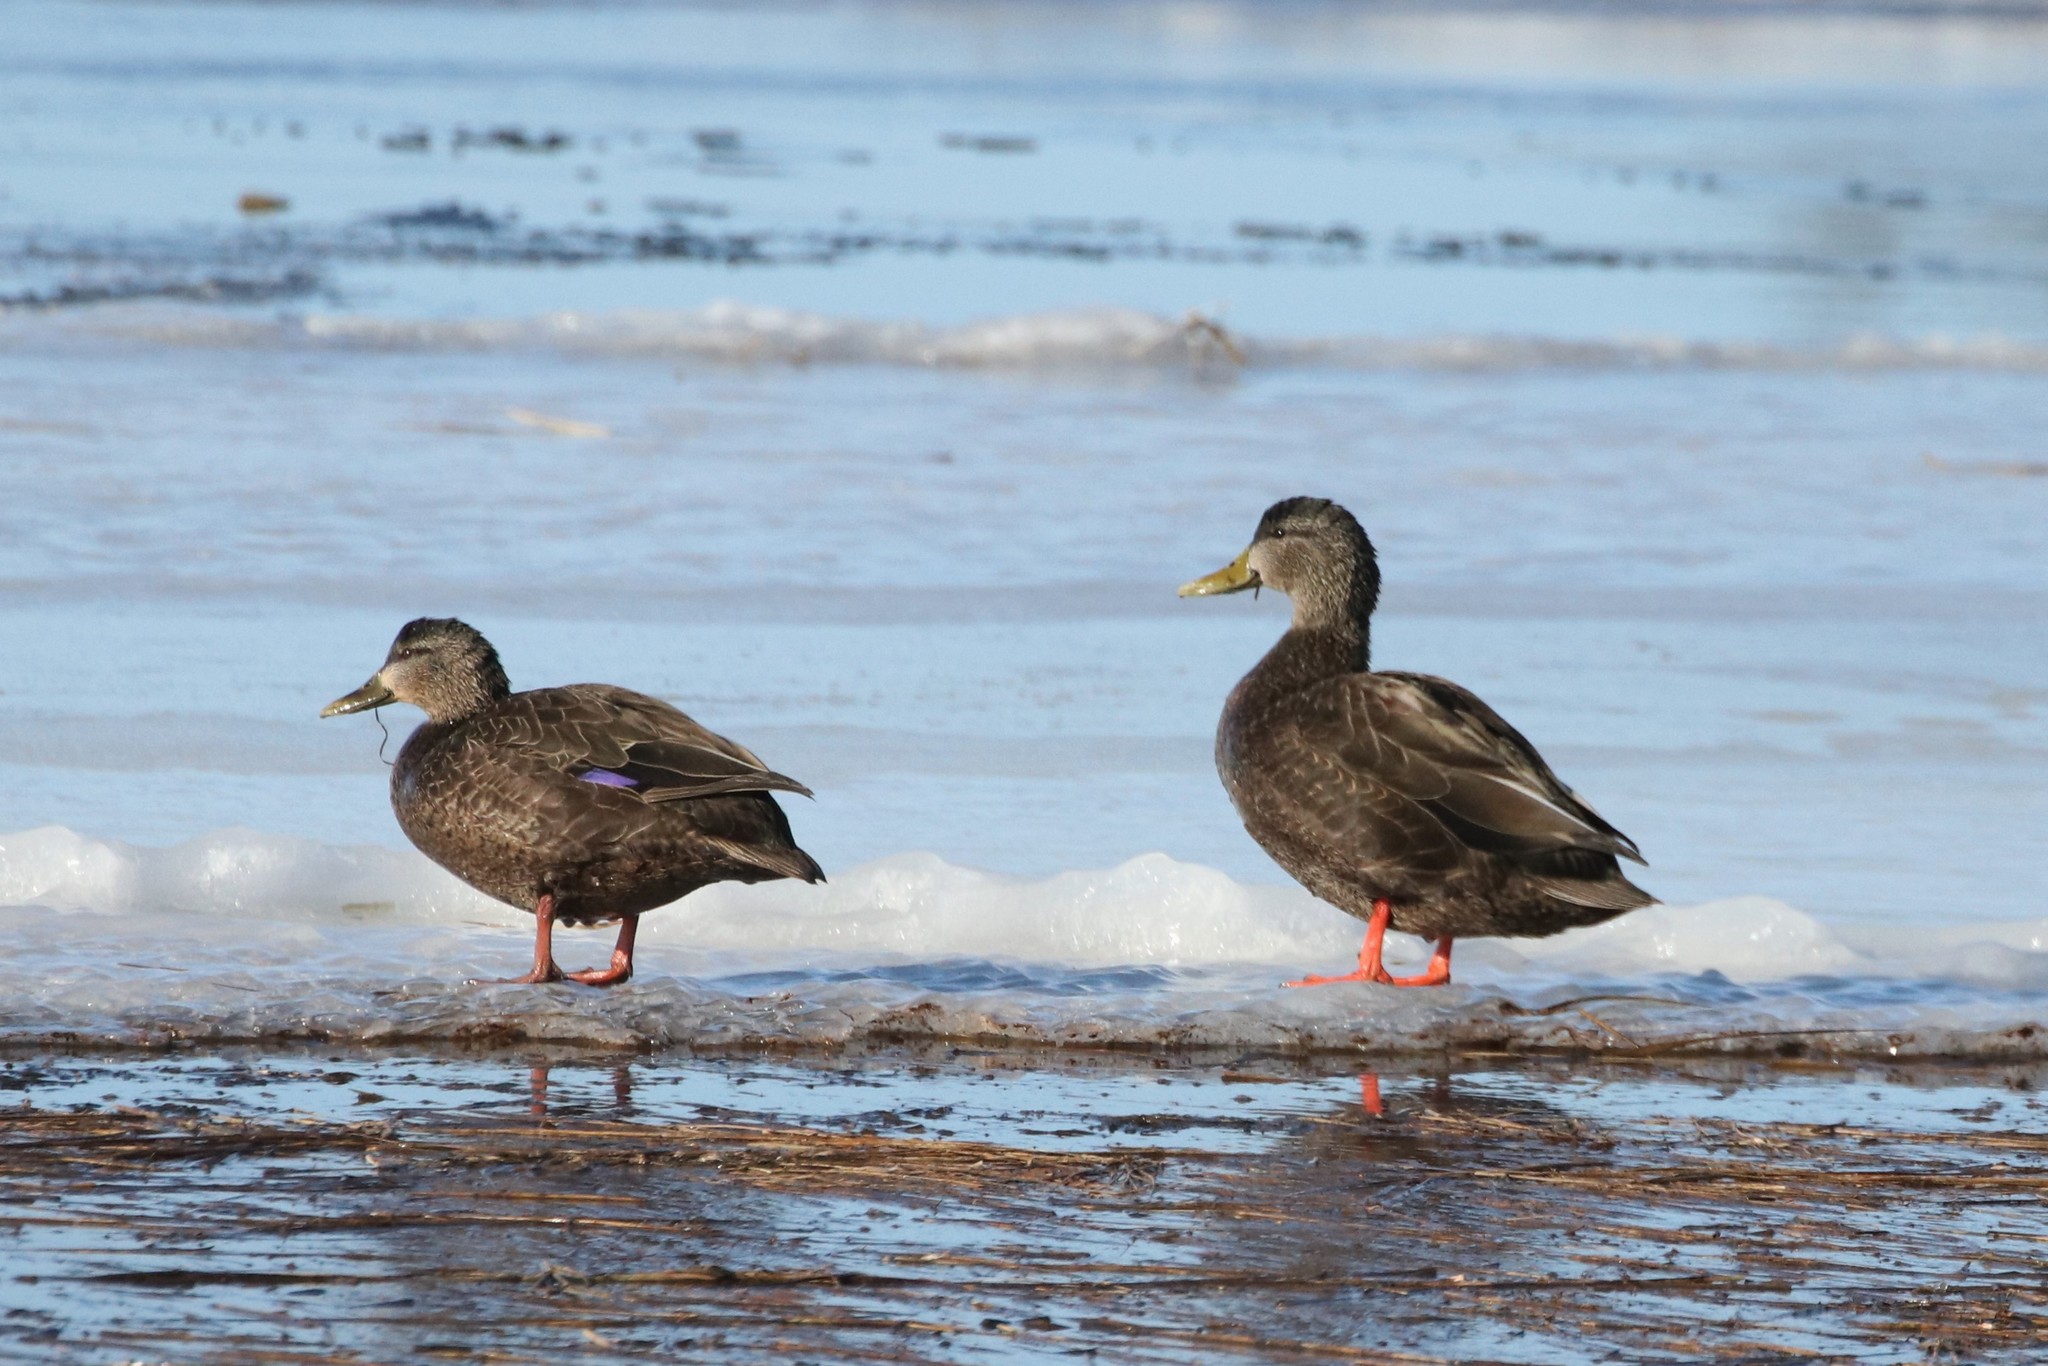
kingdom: Animalia
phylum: Chordata
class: Aves
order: Anseriformes
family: Anatidae
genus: Anas
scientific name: Anas rubripes
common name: American black duck
